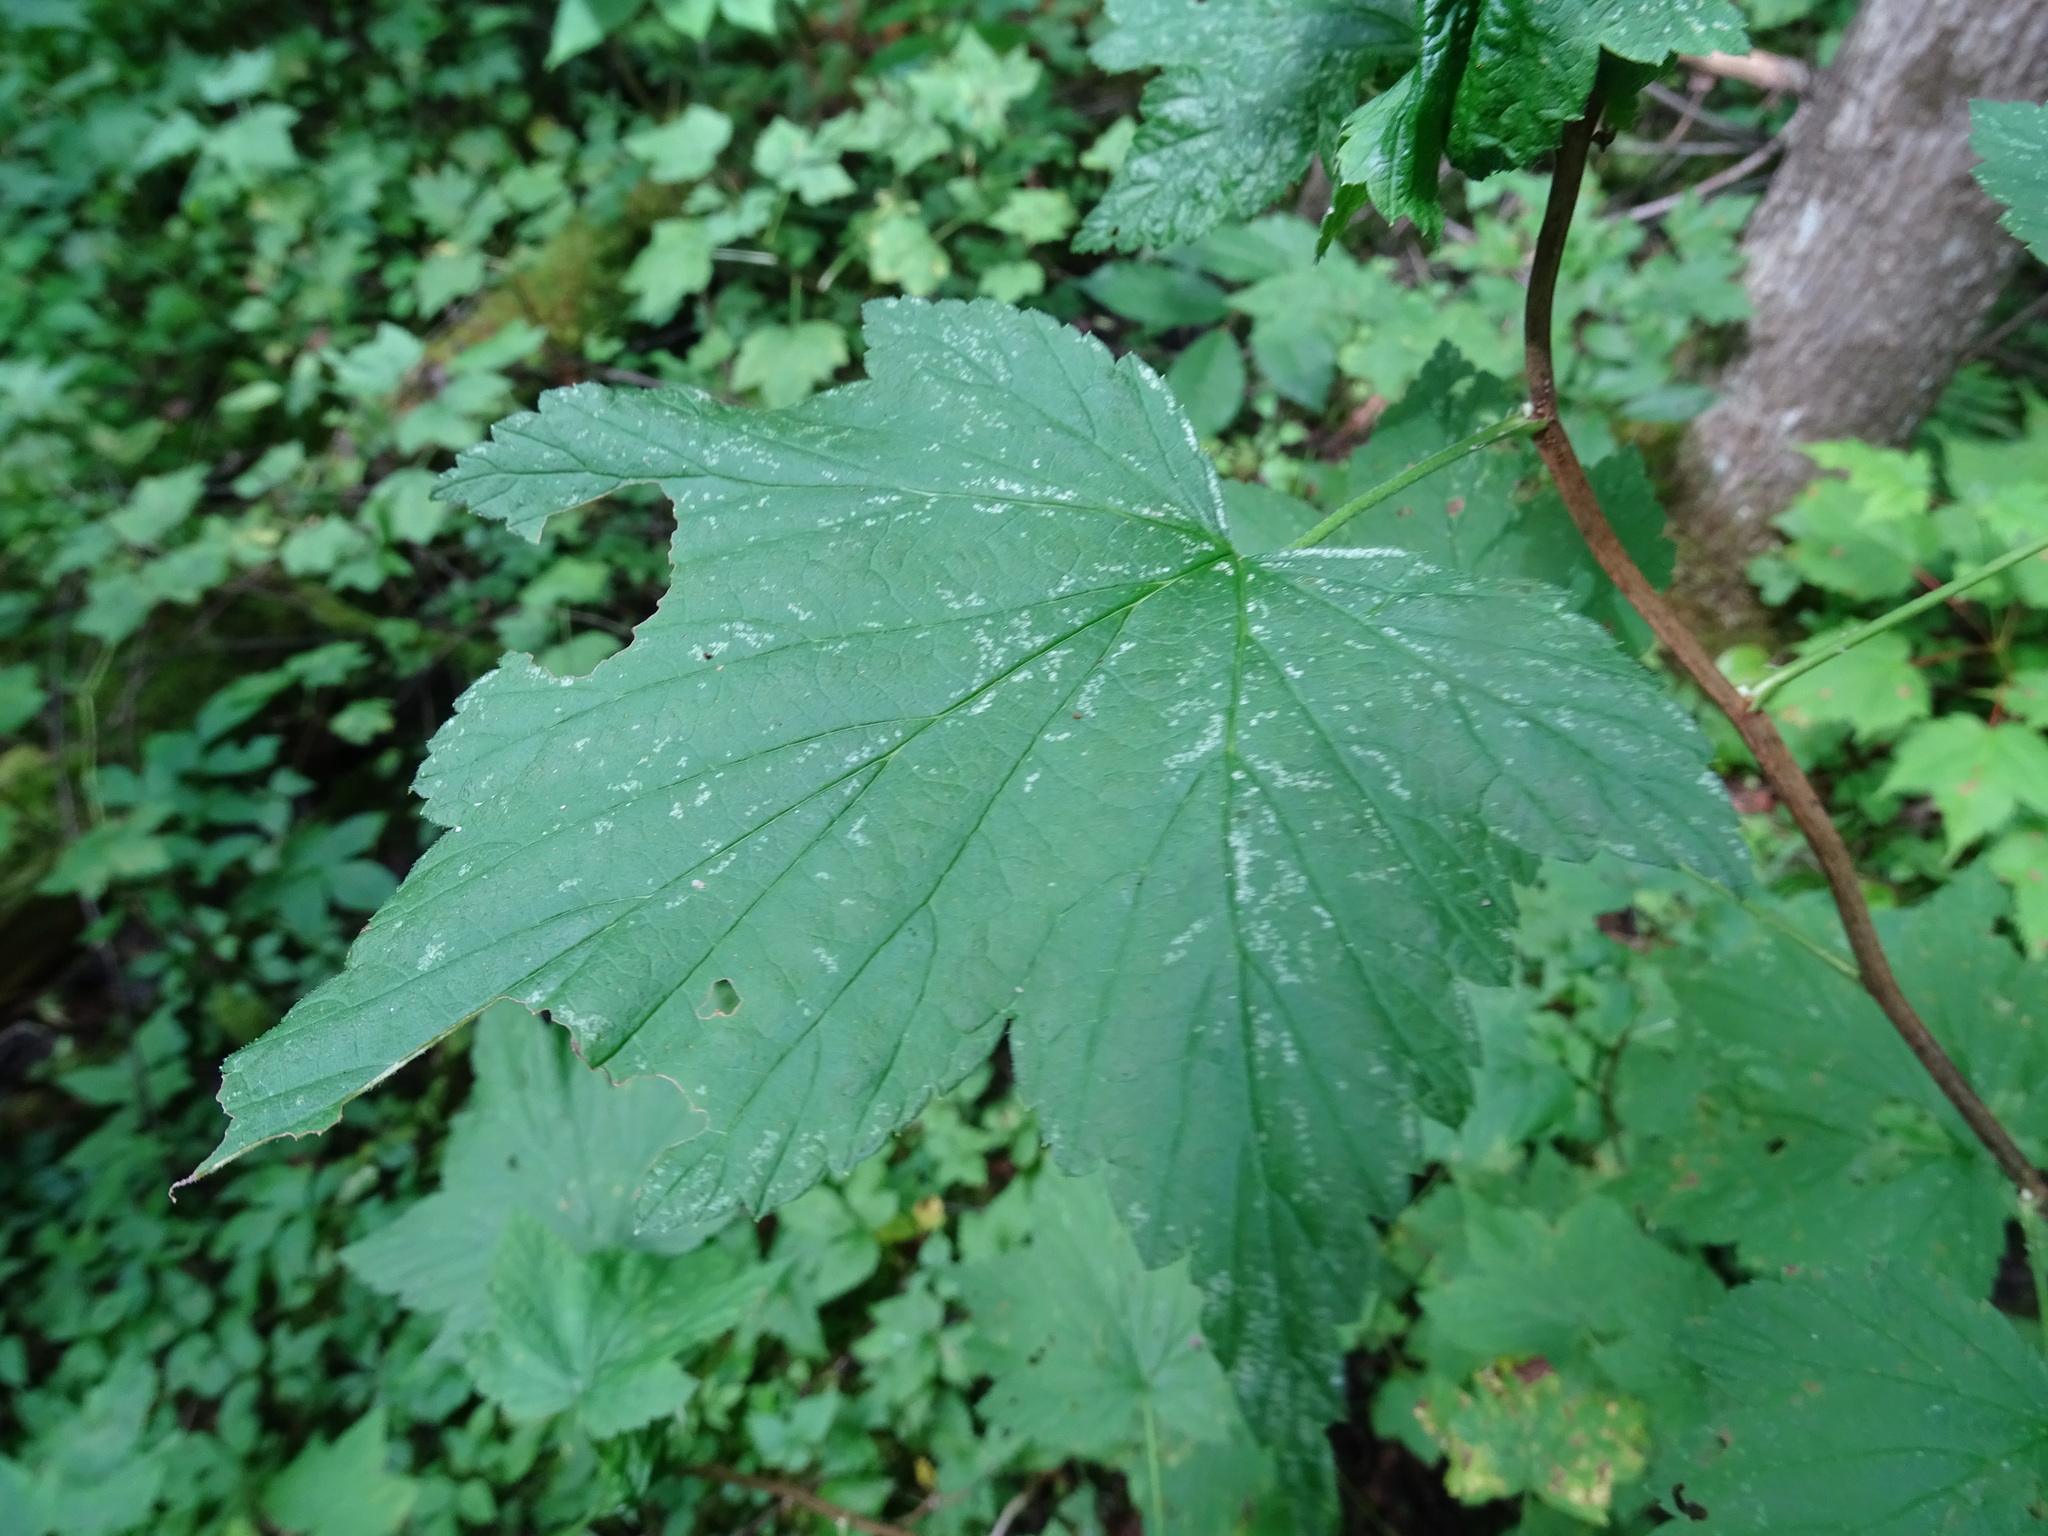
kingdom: Plantae
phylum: Tracheophyta
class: Magnoliopsida
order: Saxifragales
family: Grossulariaceae
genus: Ribes
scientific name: Ribes americanum
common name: American black currant
